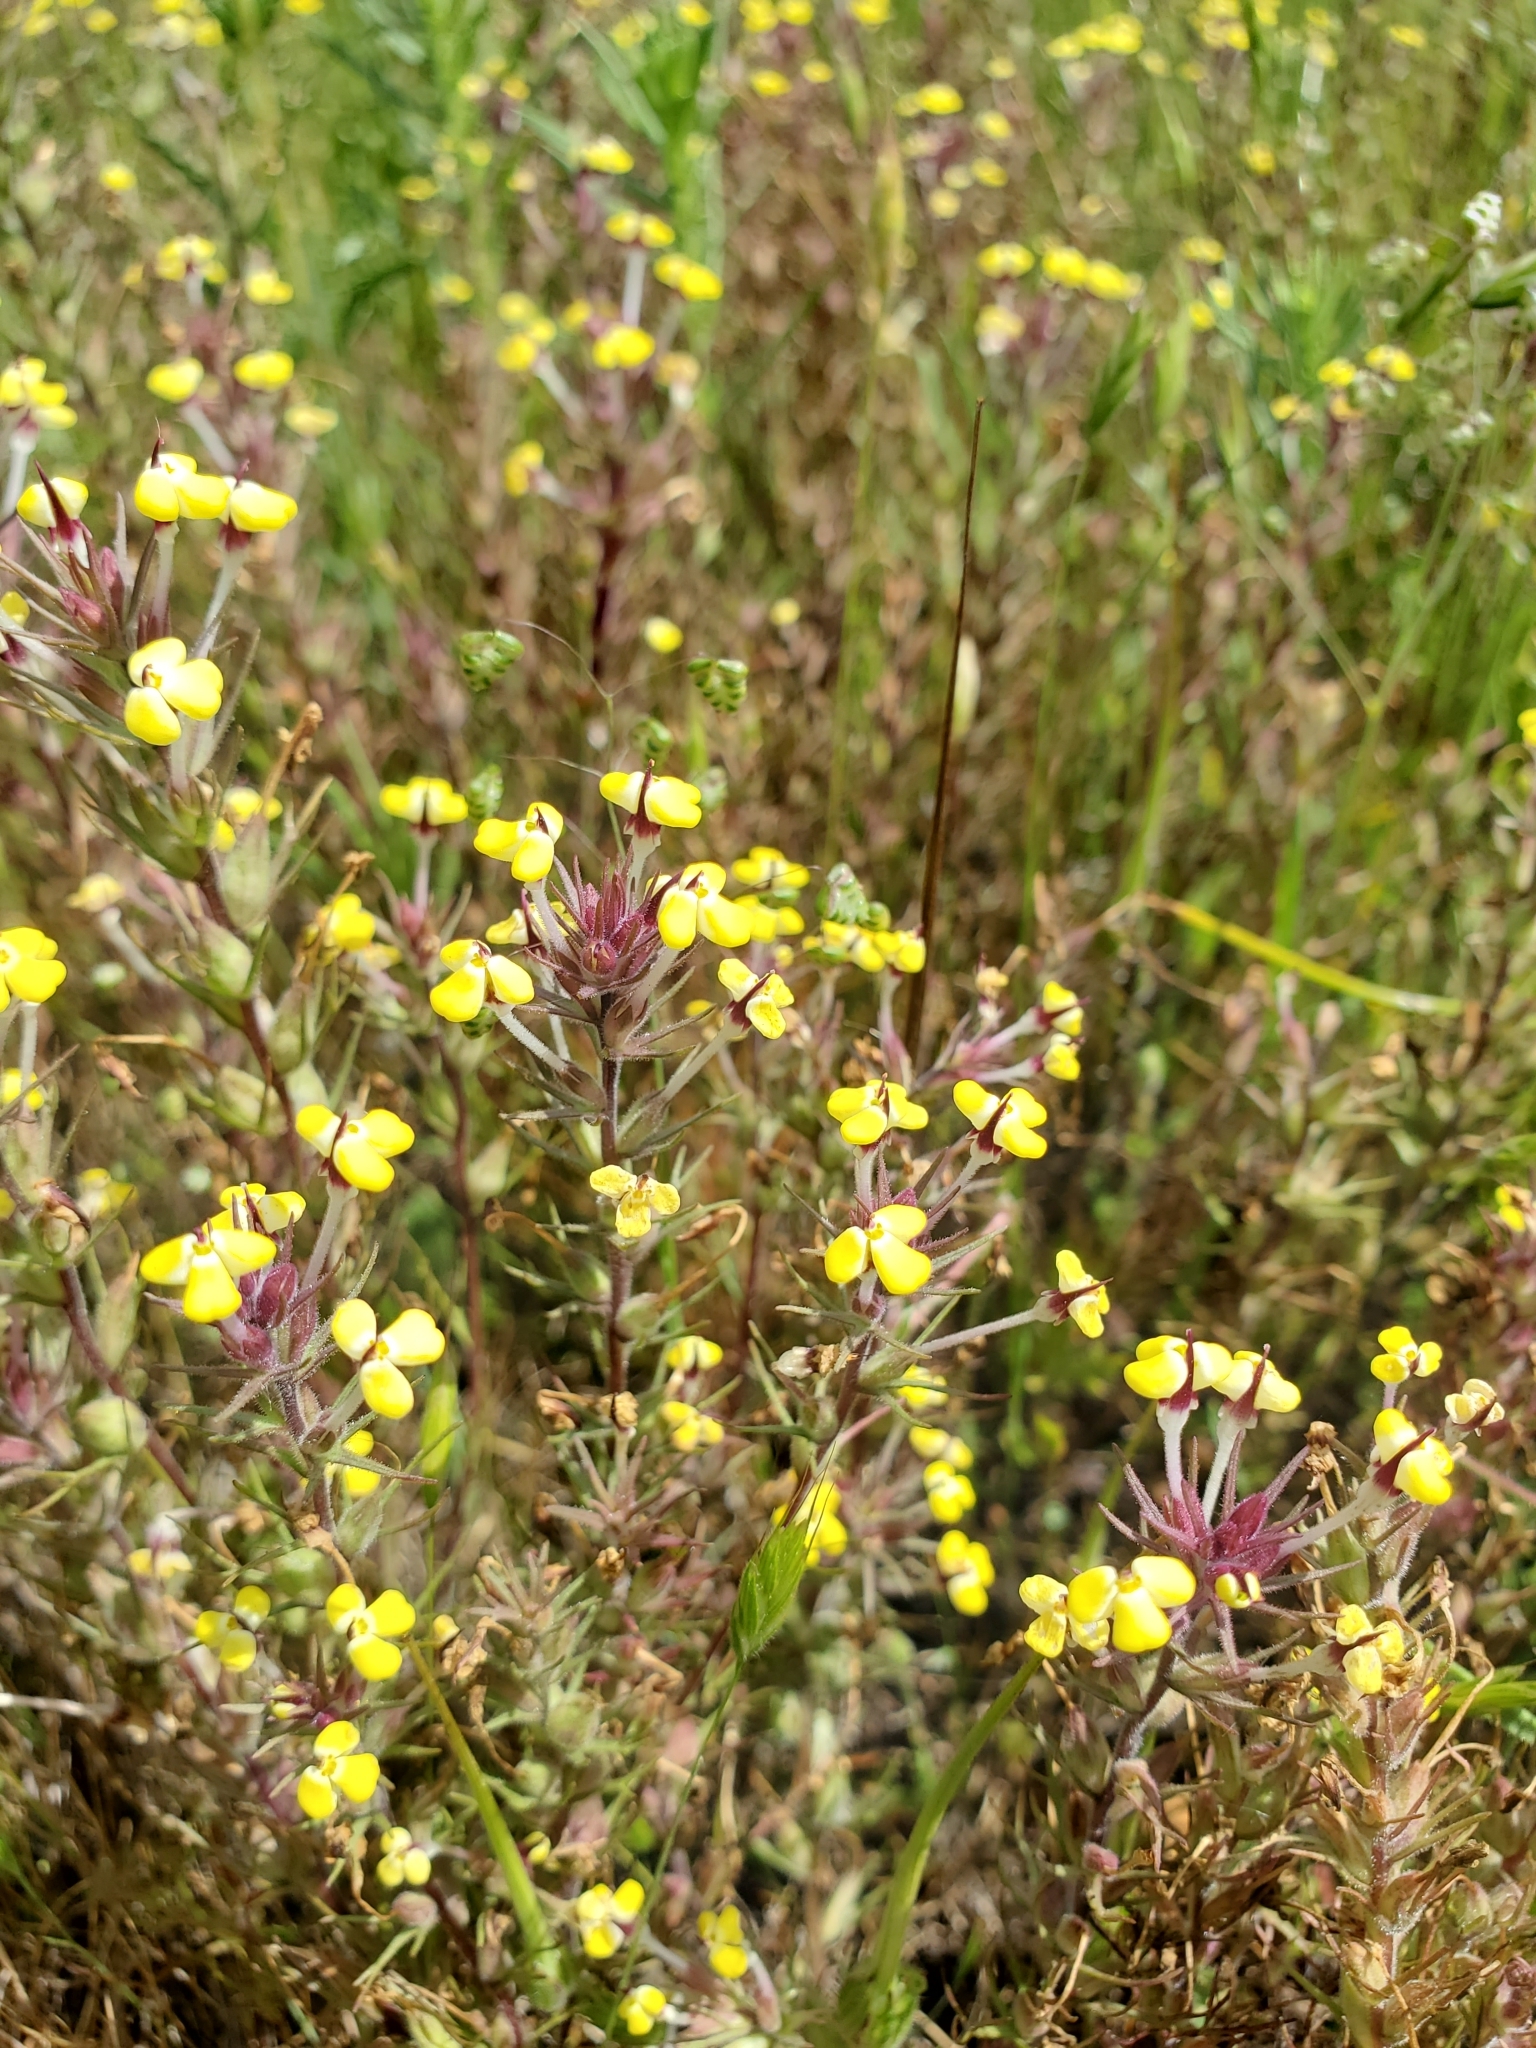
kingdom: Plantae
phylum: Tracheophyta
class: Magnoliopsida
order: Lamiales
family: Orobanchaceae
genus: Triphysaria
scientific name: Triphysaria eriantha
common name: Johnny-tuck
